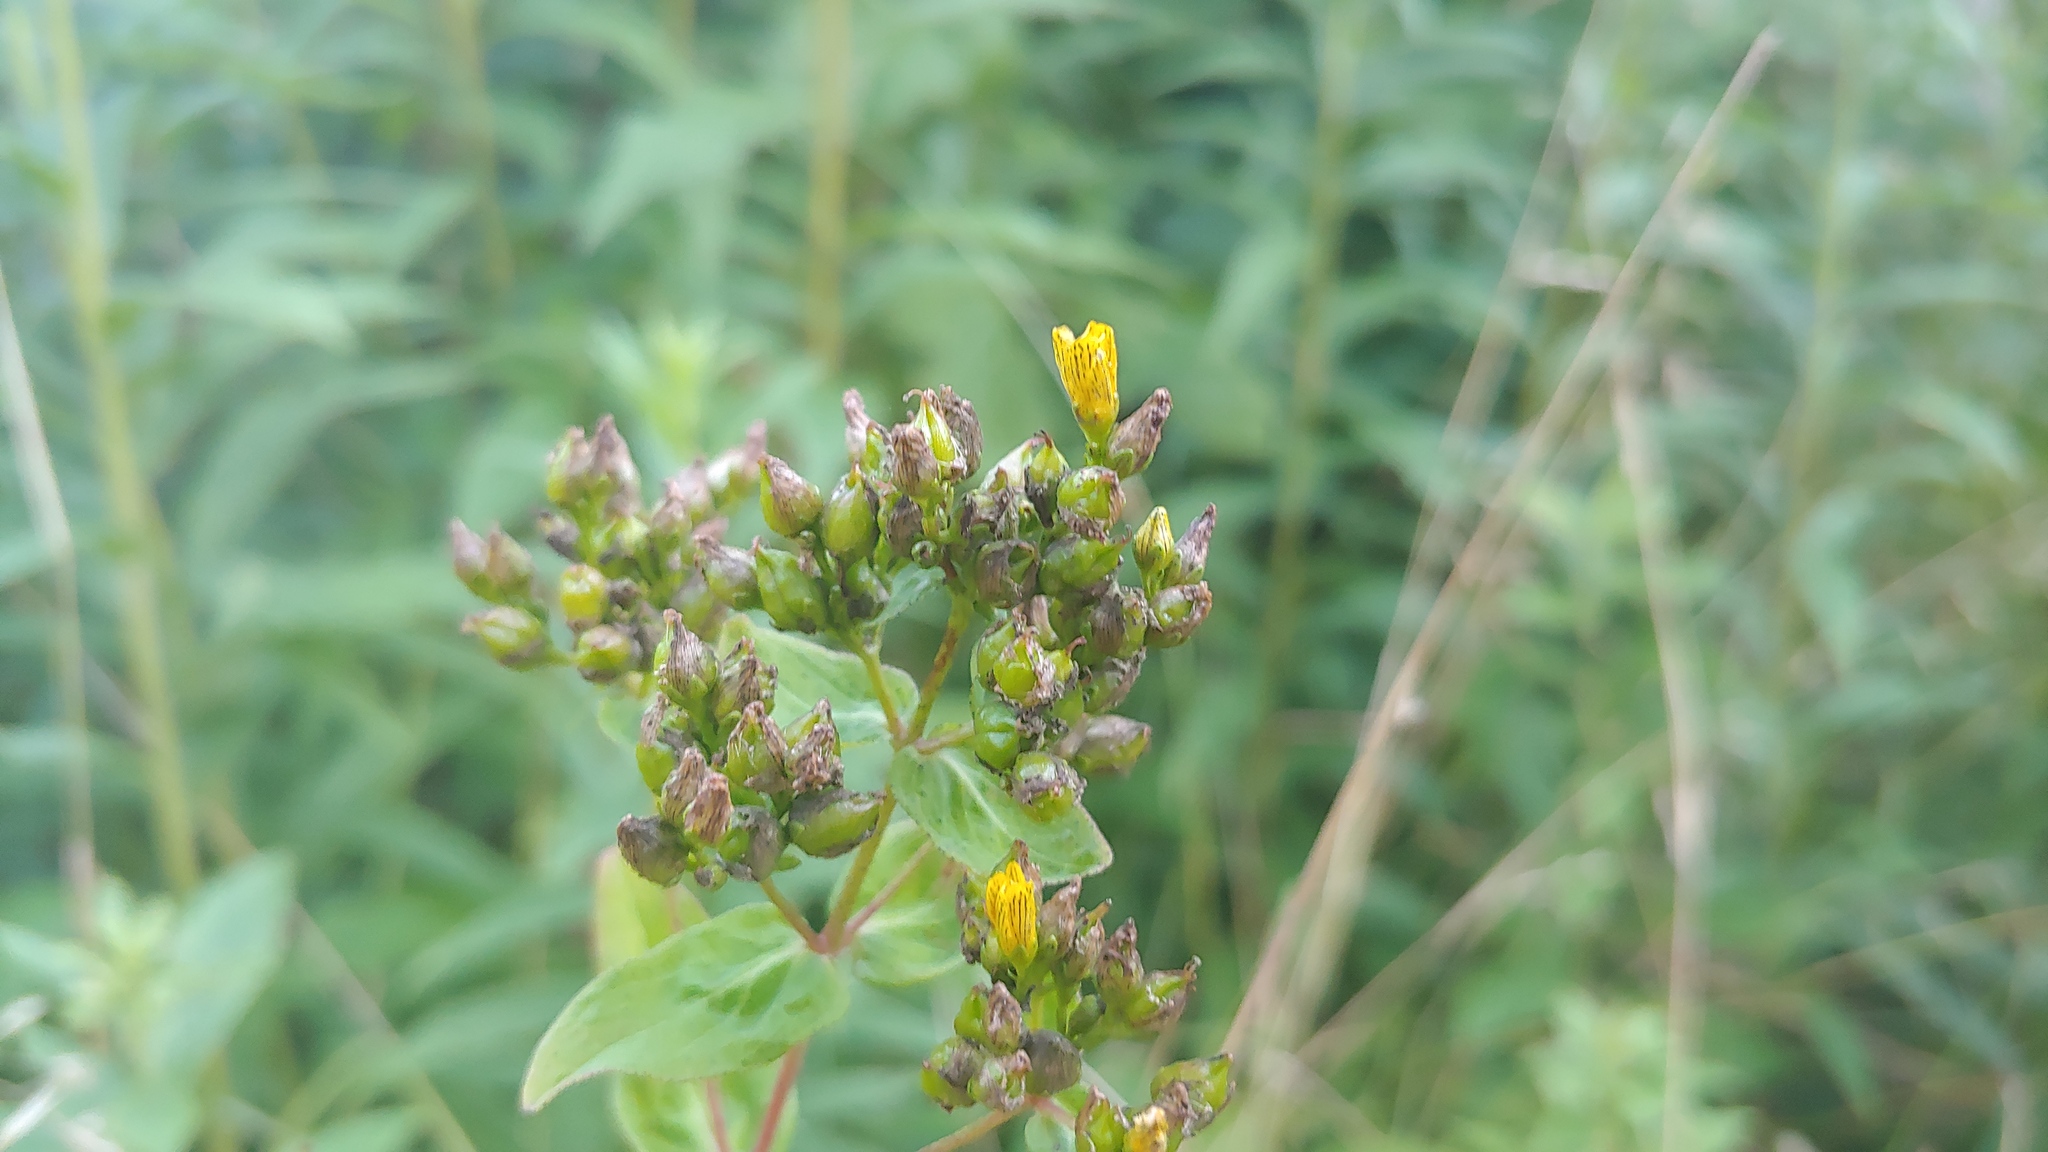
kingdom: Plantae
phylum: Tracheophyta
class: Magnoliopsida
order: Malpighiales
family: Hypericaceae
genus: Hypericum
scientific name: Hypericum punctatum
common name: Spotted st. john's-wort
